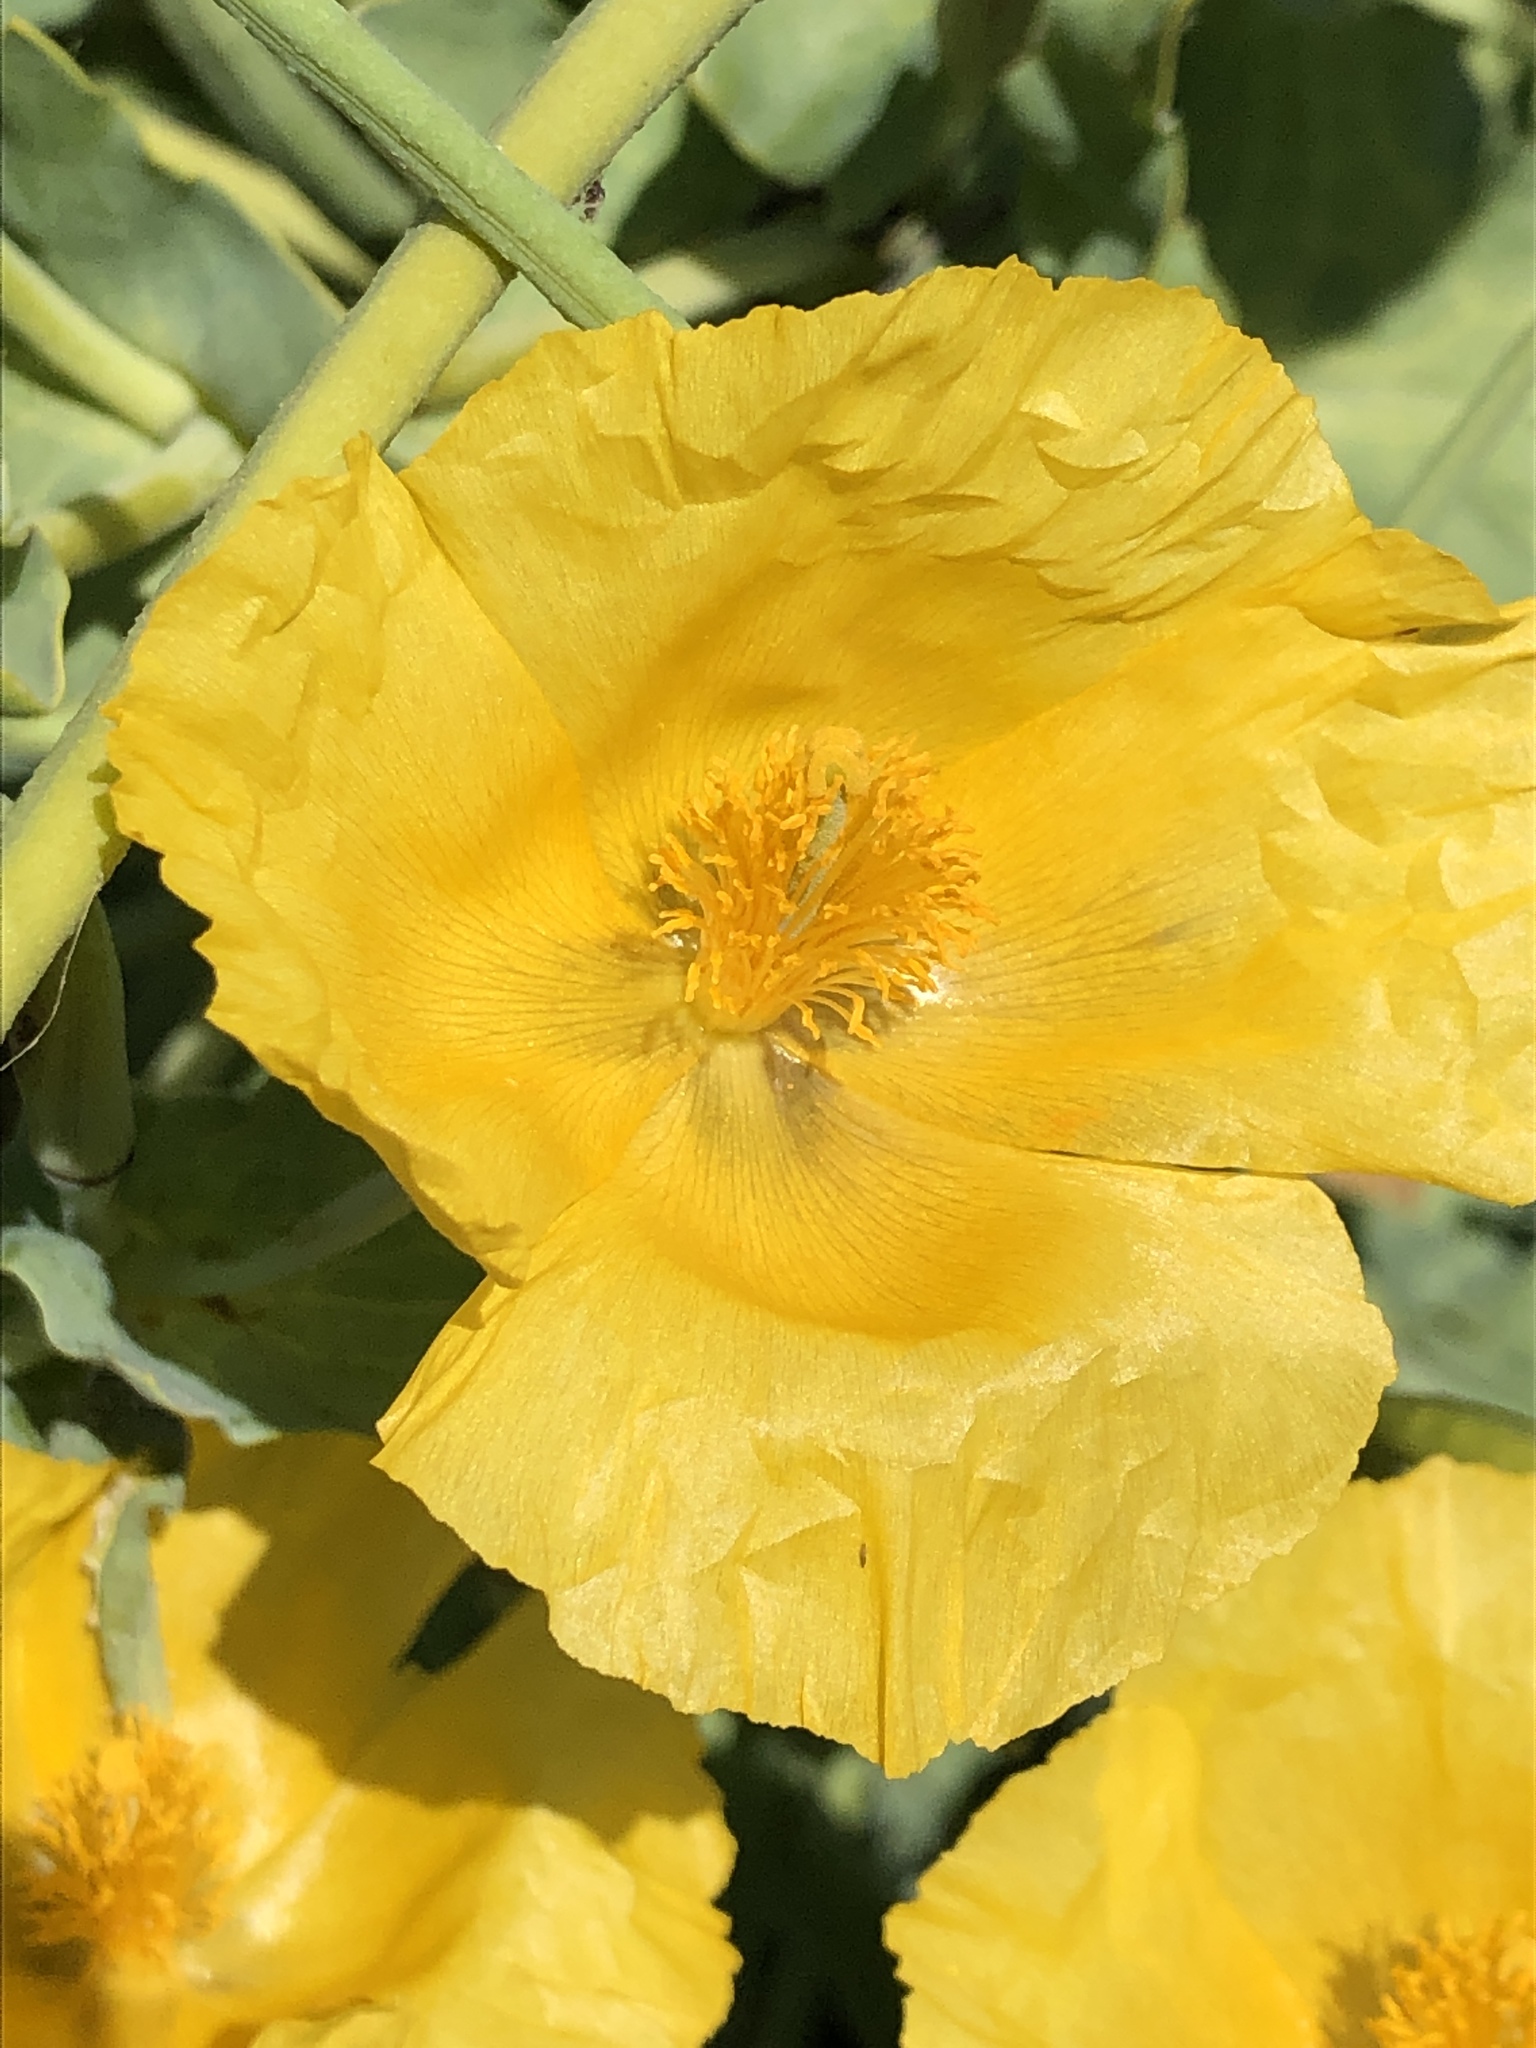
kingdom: Plantae
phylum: Tracheophyta
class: Magnoliopsida
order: Ranunculales
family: Papaveraceae
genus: Glaucium
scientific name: Glaucium flavum
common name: Yellow horned-poppy
